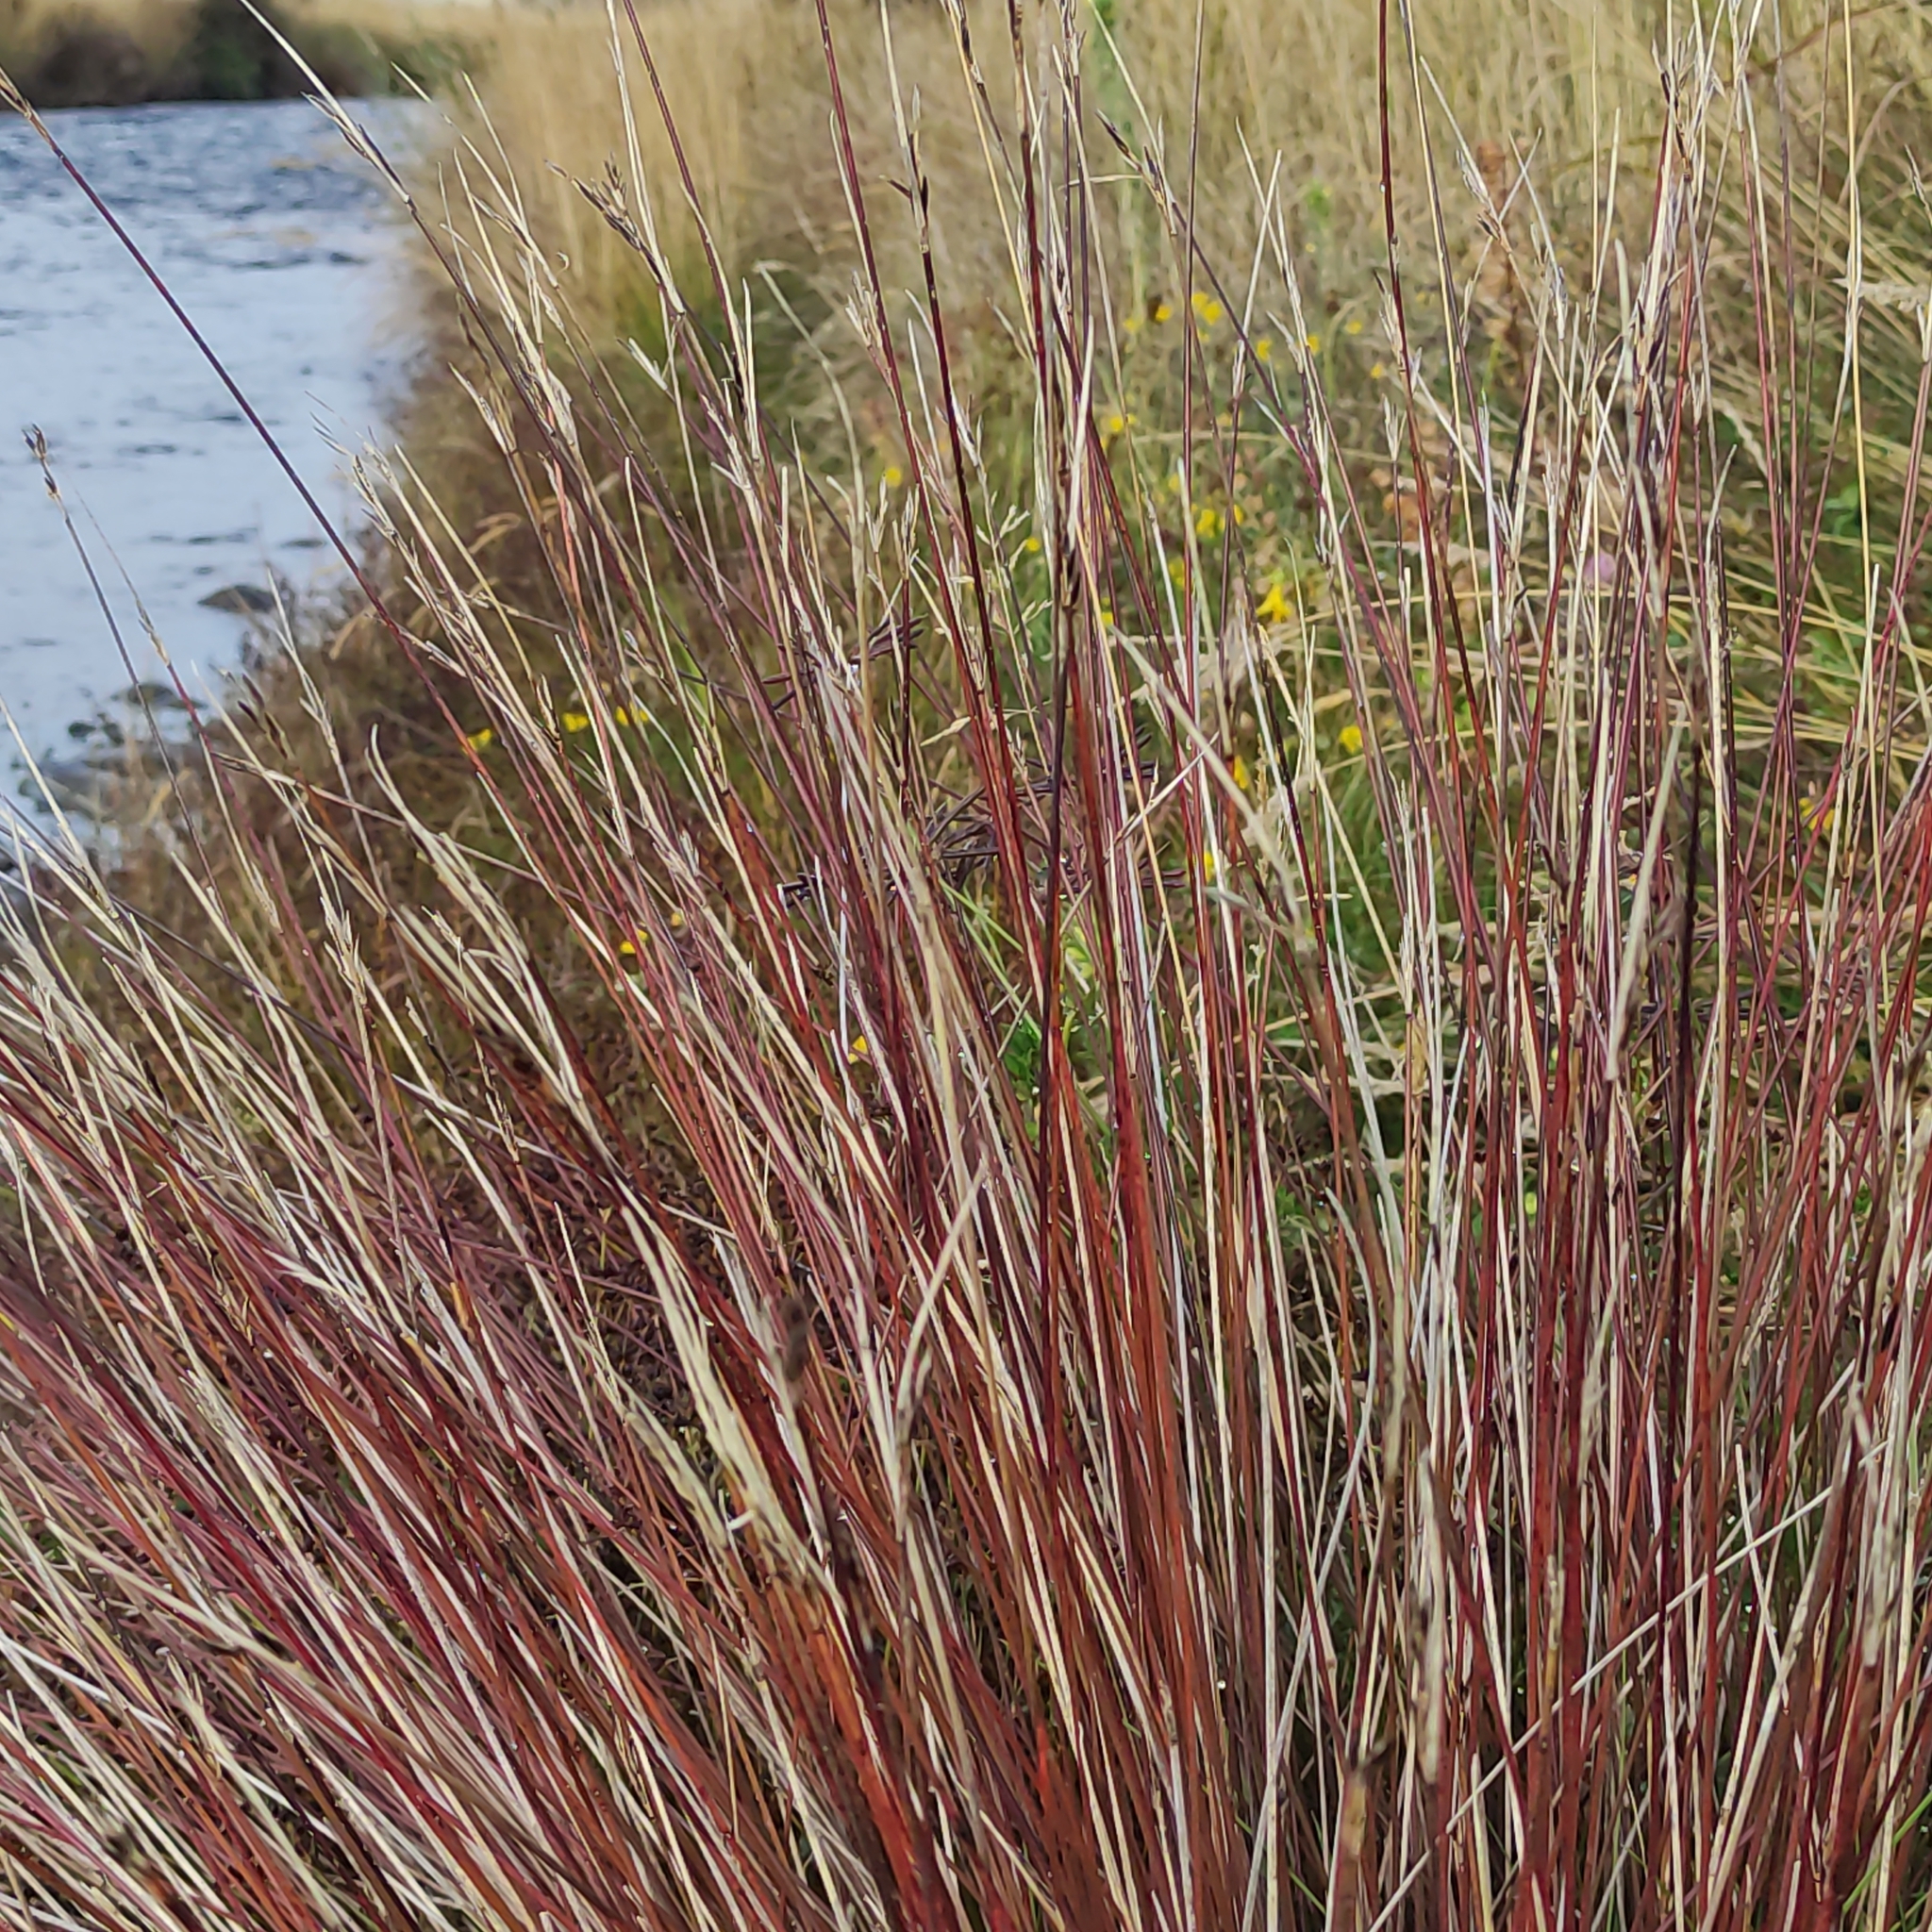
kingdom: Plantae
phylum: Tracheophyta
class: Liliopsida
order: Poales
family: Cyperaceae
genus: Schoenus
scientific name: Schoenus pauciflorus
